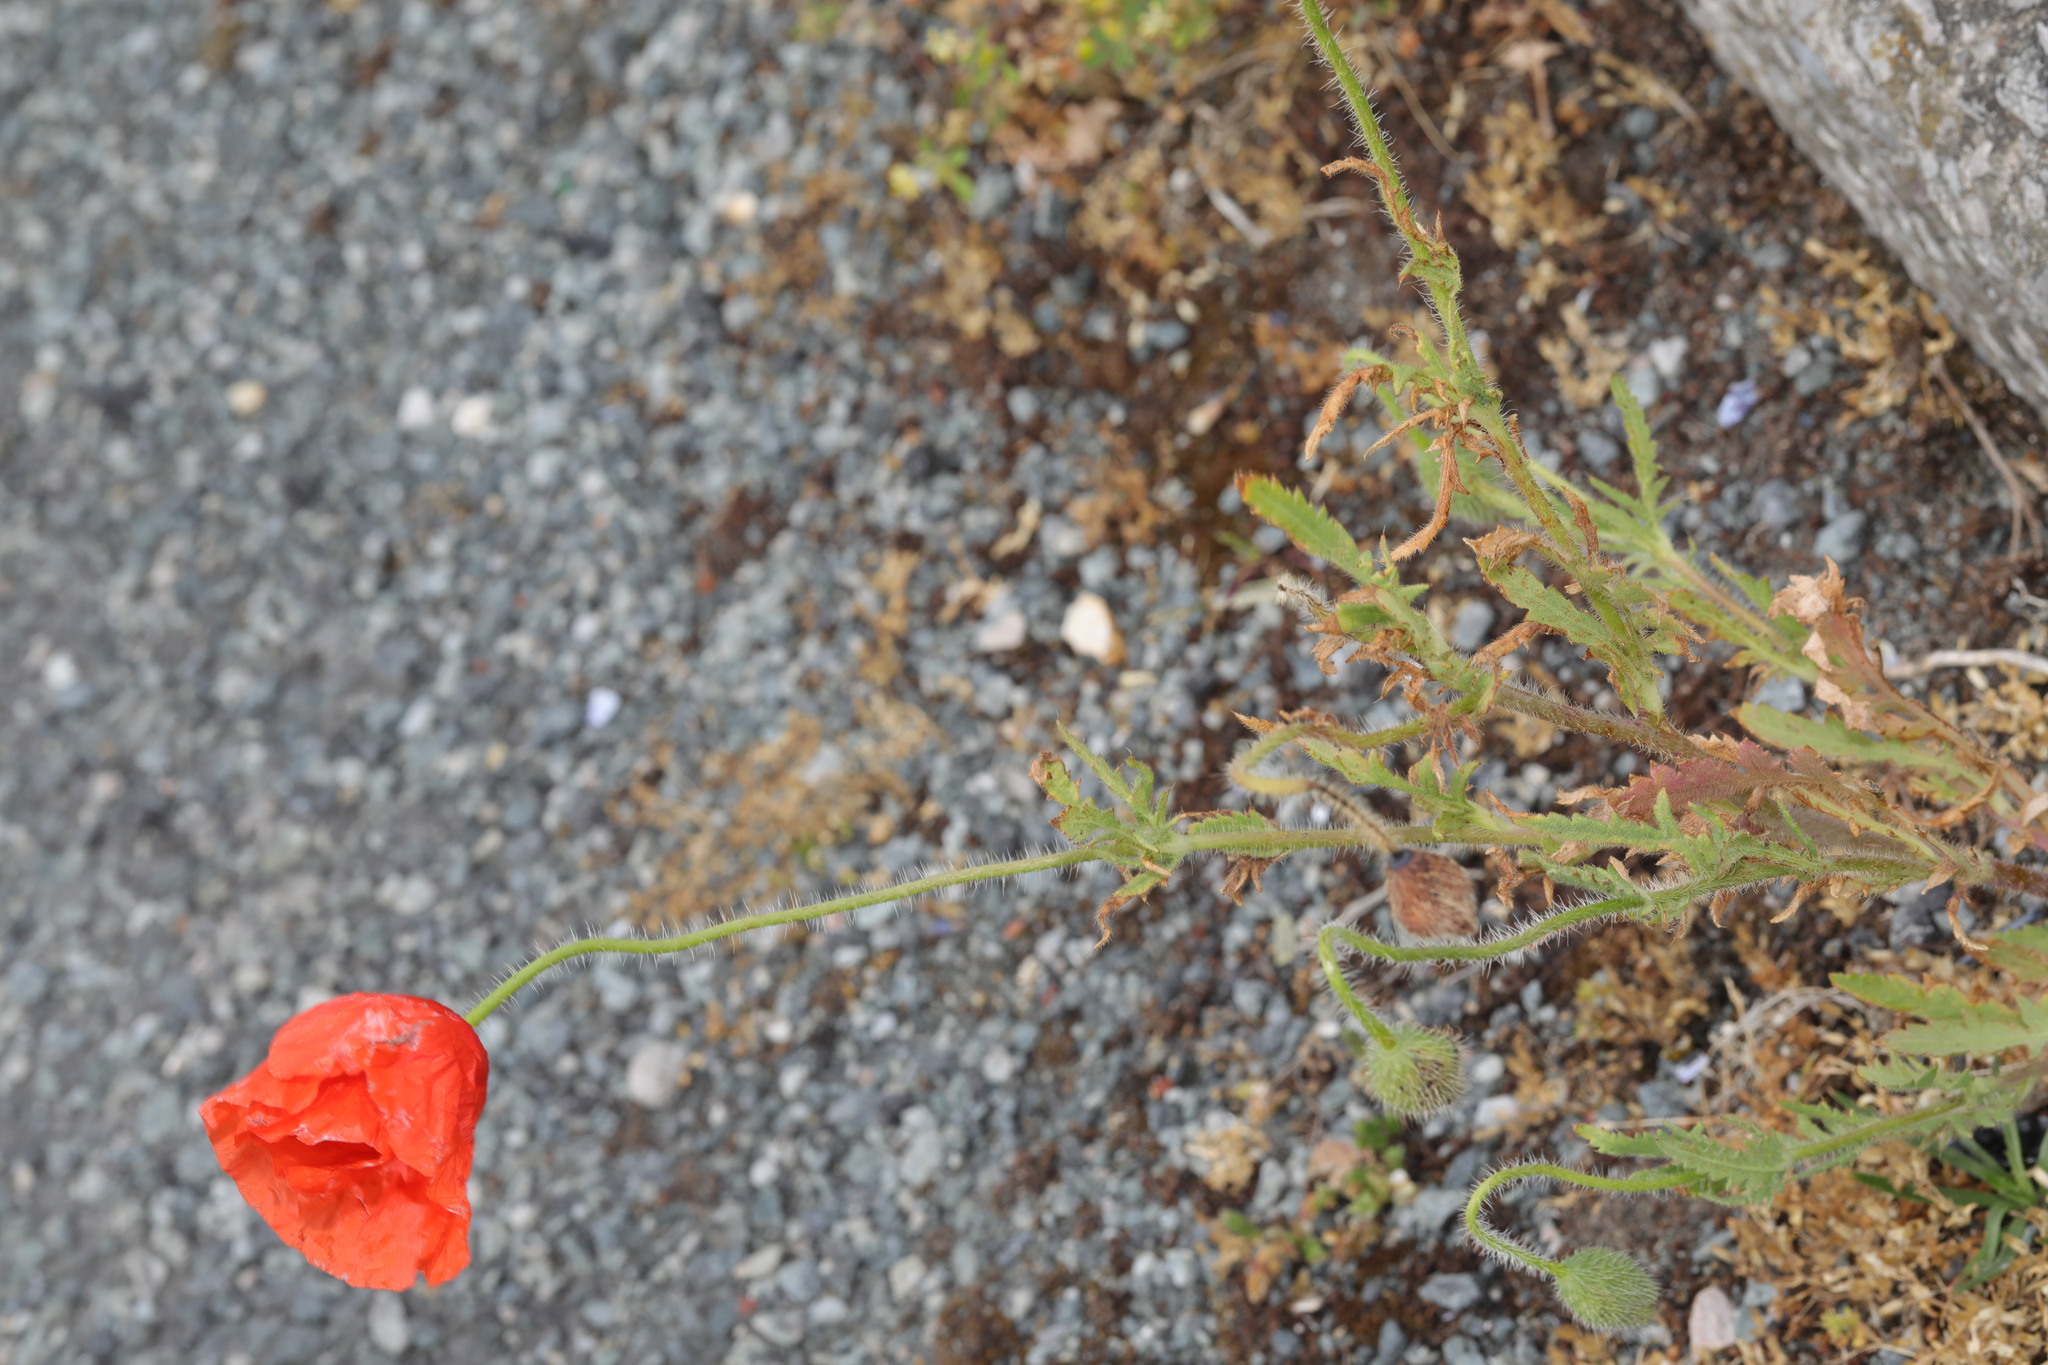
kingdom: Plantae
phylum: Tracheophyta
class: Magnoliopsida
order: Ranunculales
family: Papaveraceae
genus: Papaver
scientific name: Papaver rhoeas
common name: Corn poppy
